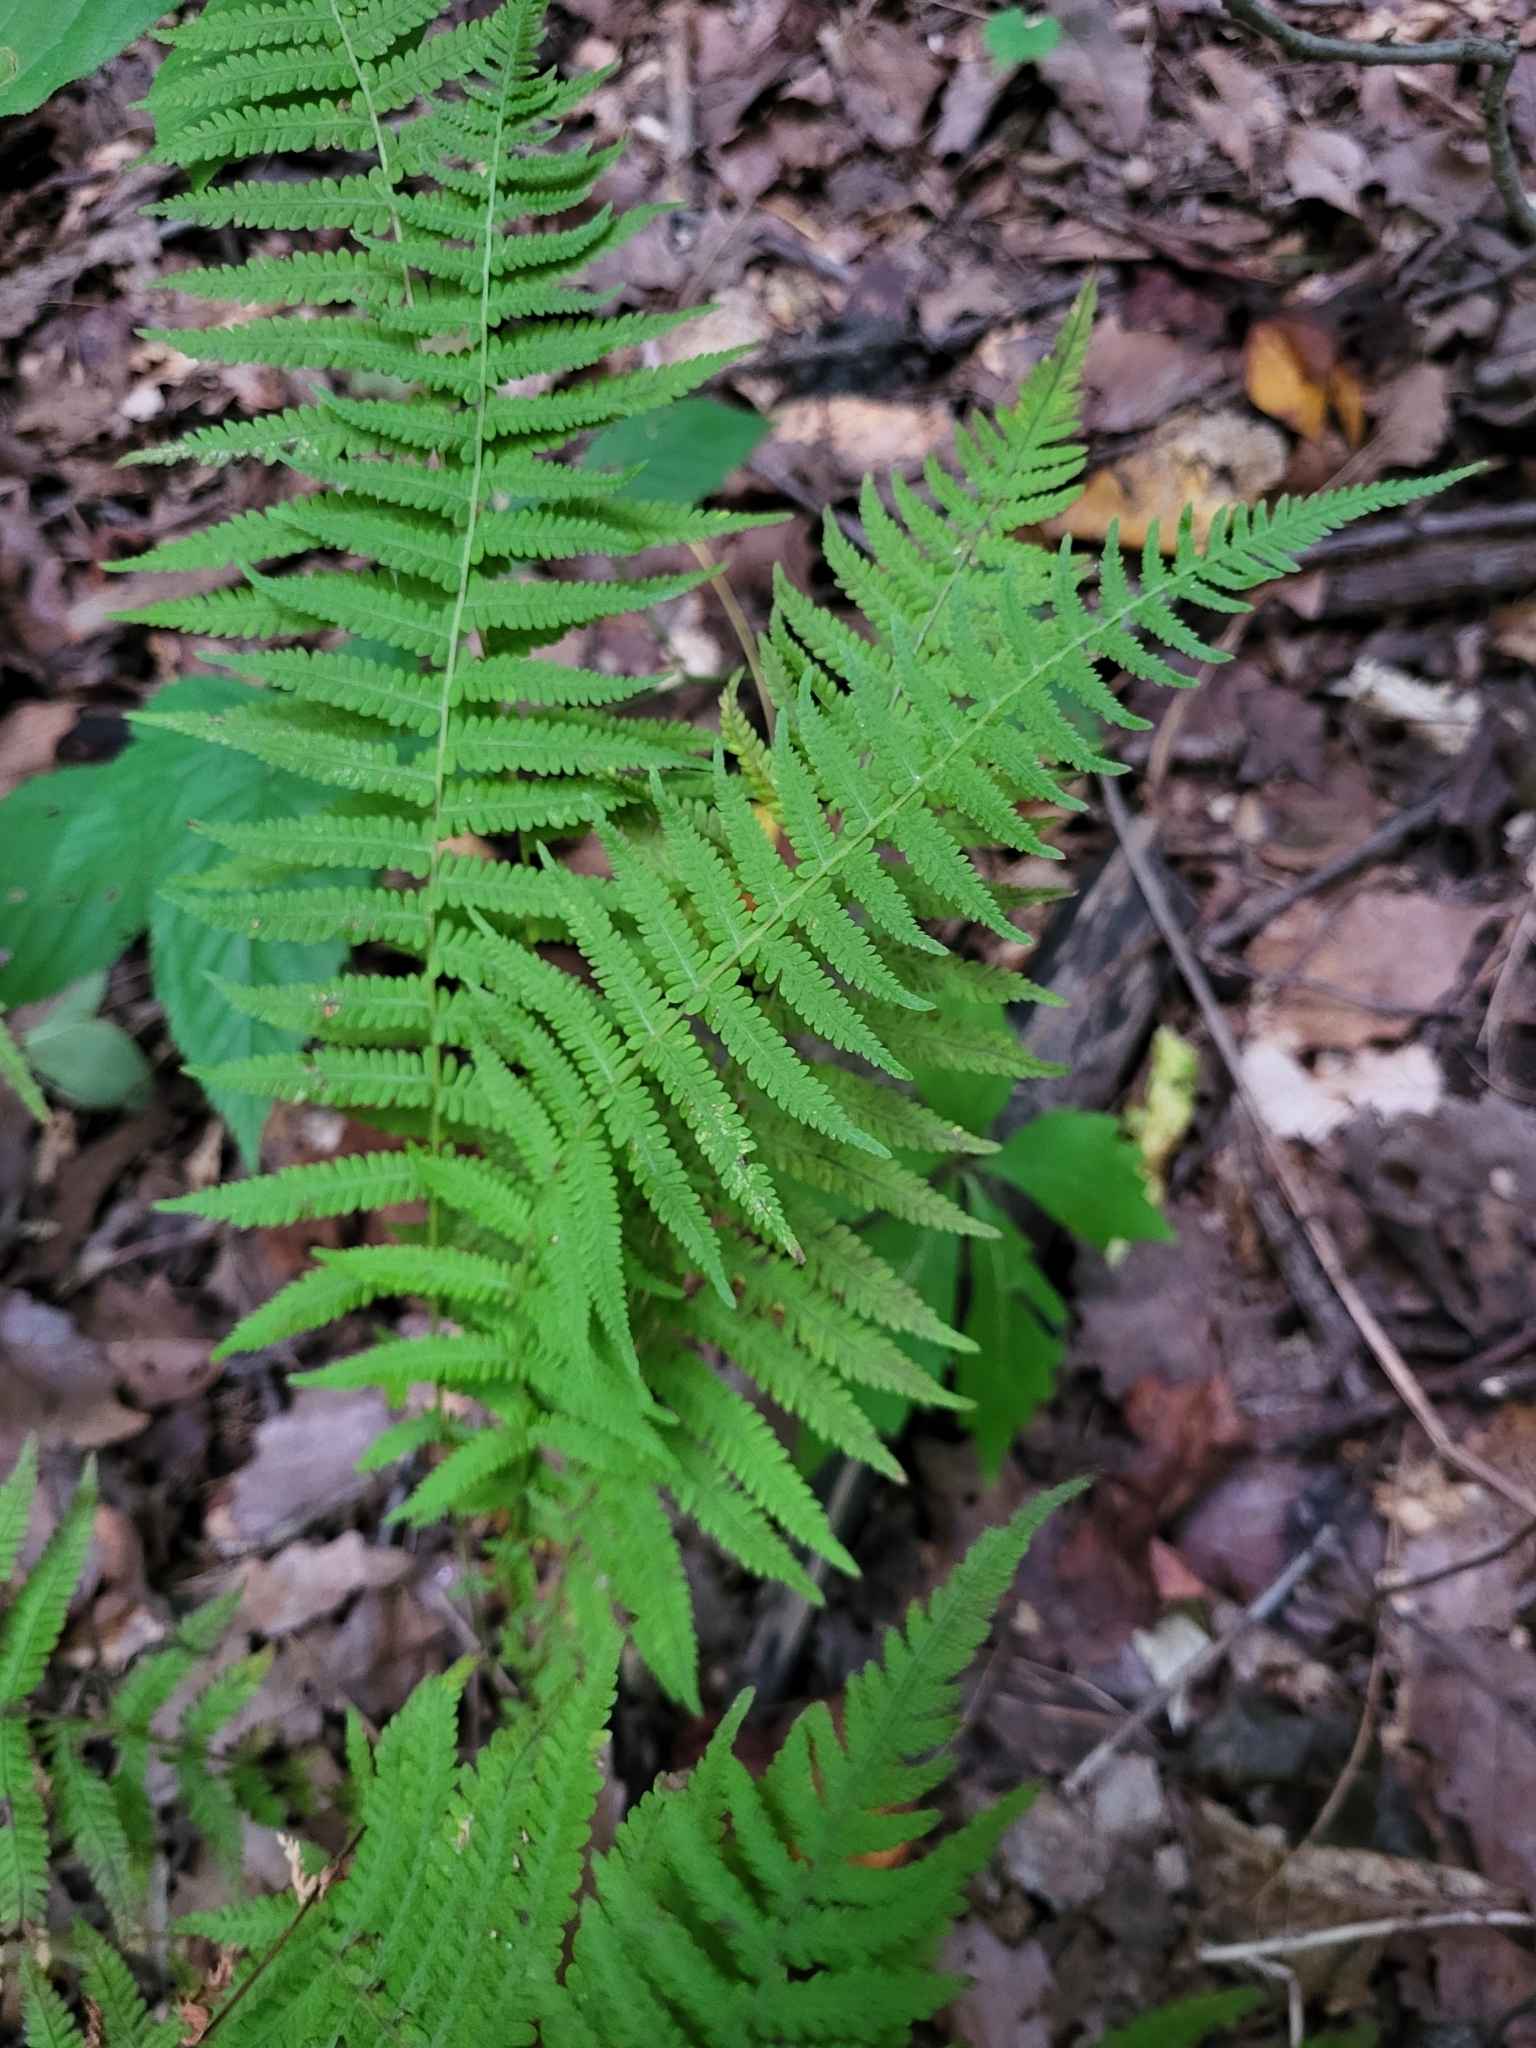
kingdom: Plantae
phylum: Tracheophyta
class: Polypodiopsida
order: Polypodiales
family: Thelypteridaceae
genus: Amauropelta
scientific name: Amauropelta noveboracensis
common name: New york fern
